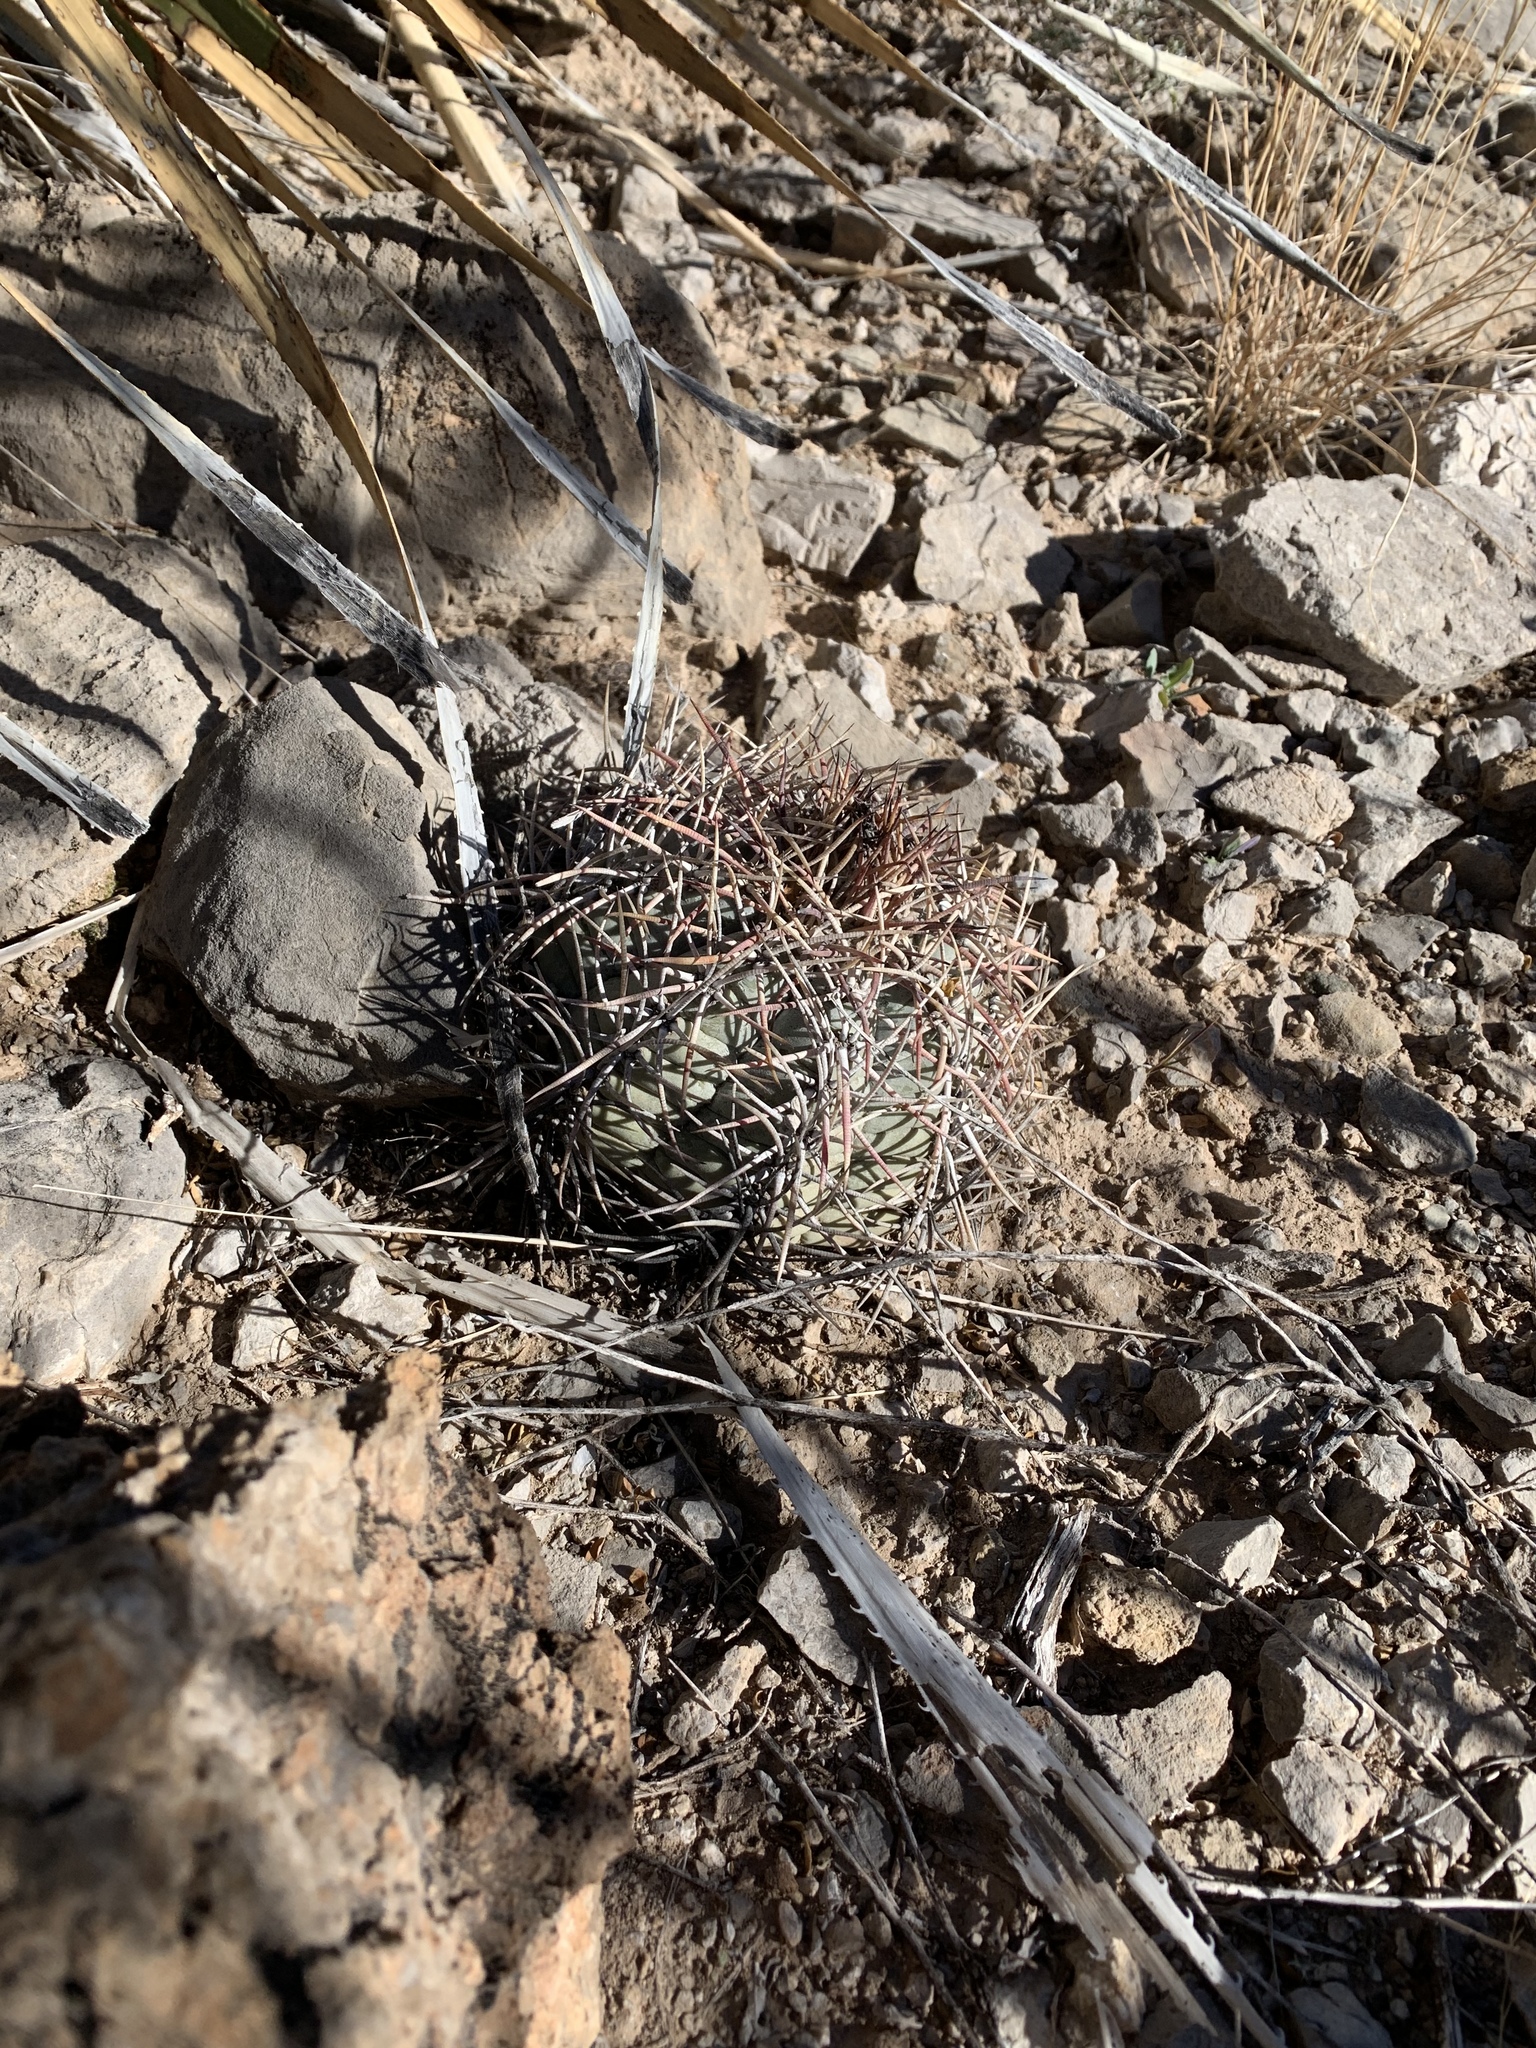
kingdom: Plantae
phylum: Tracheophyta
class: Magnoliopsida
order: Caryophyllales
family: Cactaceae
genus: Echinocactus
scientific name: Echinocactus horizonthalonius
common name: Devilshead
